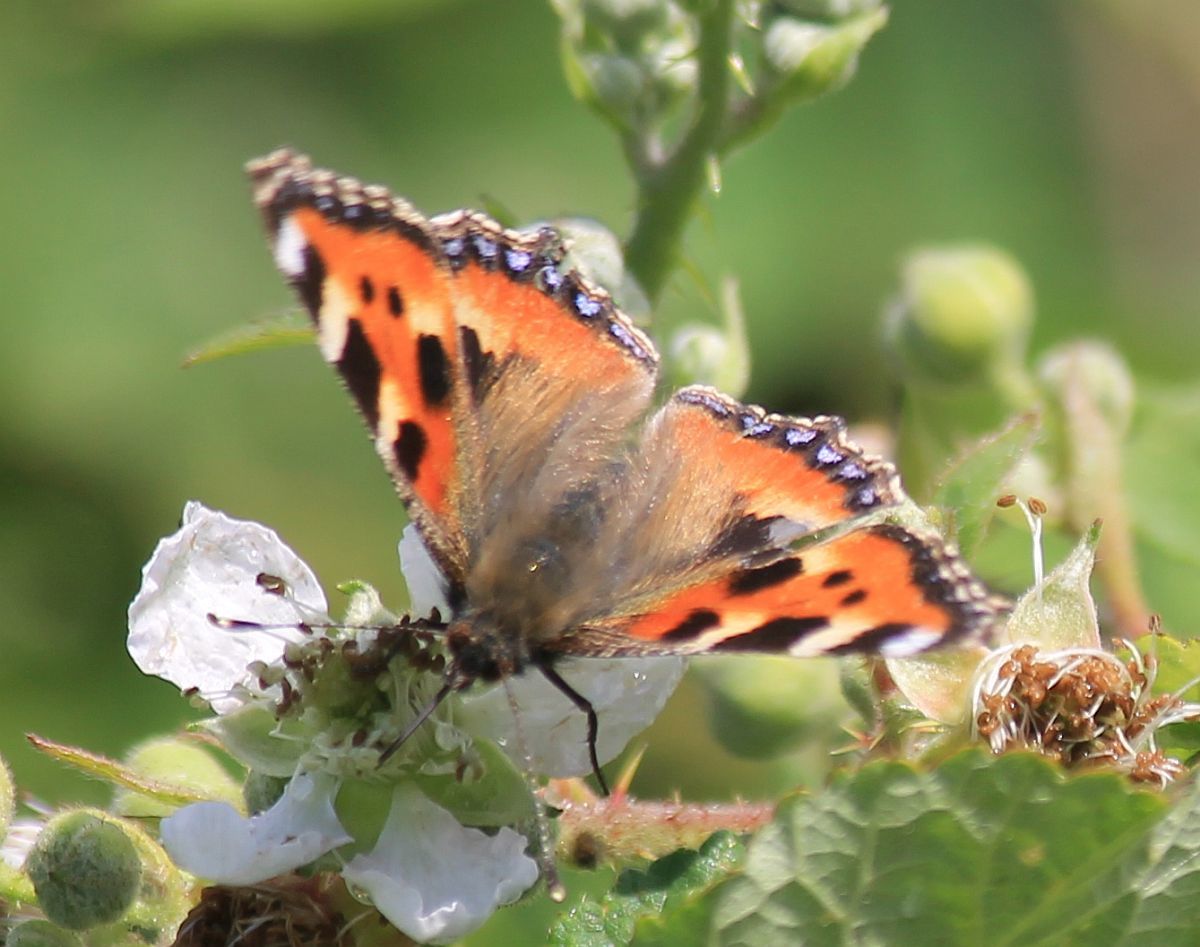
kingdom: Animalia
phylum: Arthropoda
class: Insecta
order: Lepidoptera
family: Nymphalidae
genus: Aglais
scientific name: Aglais urticae
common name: Small tortoiseshell
